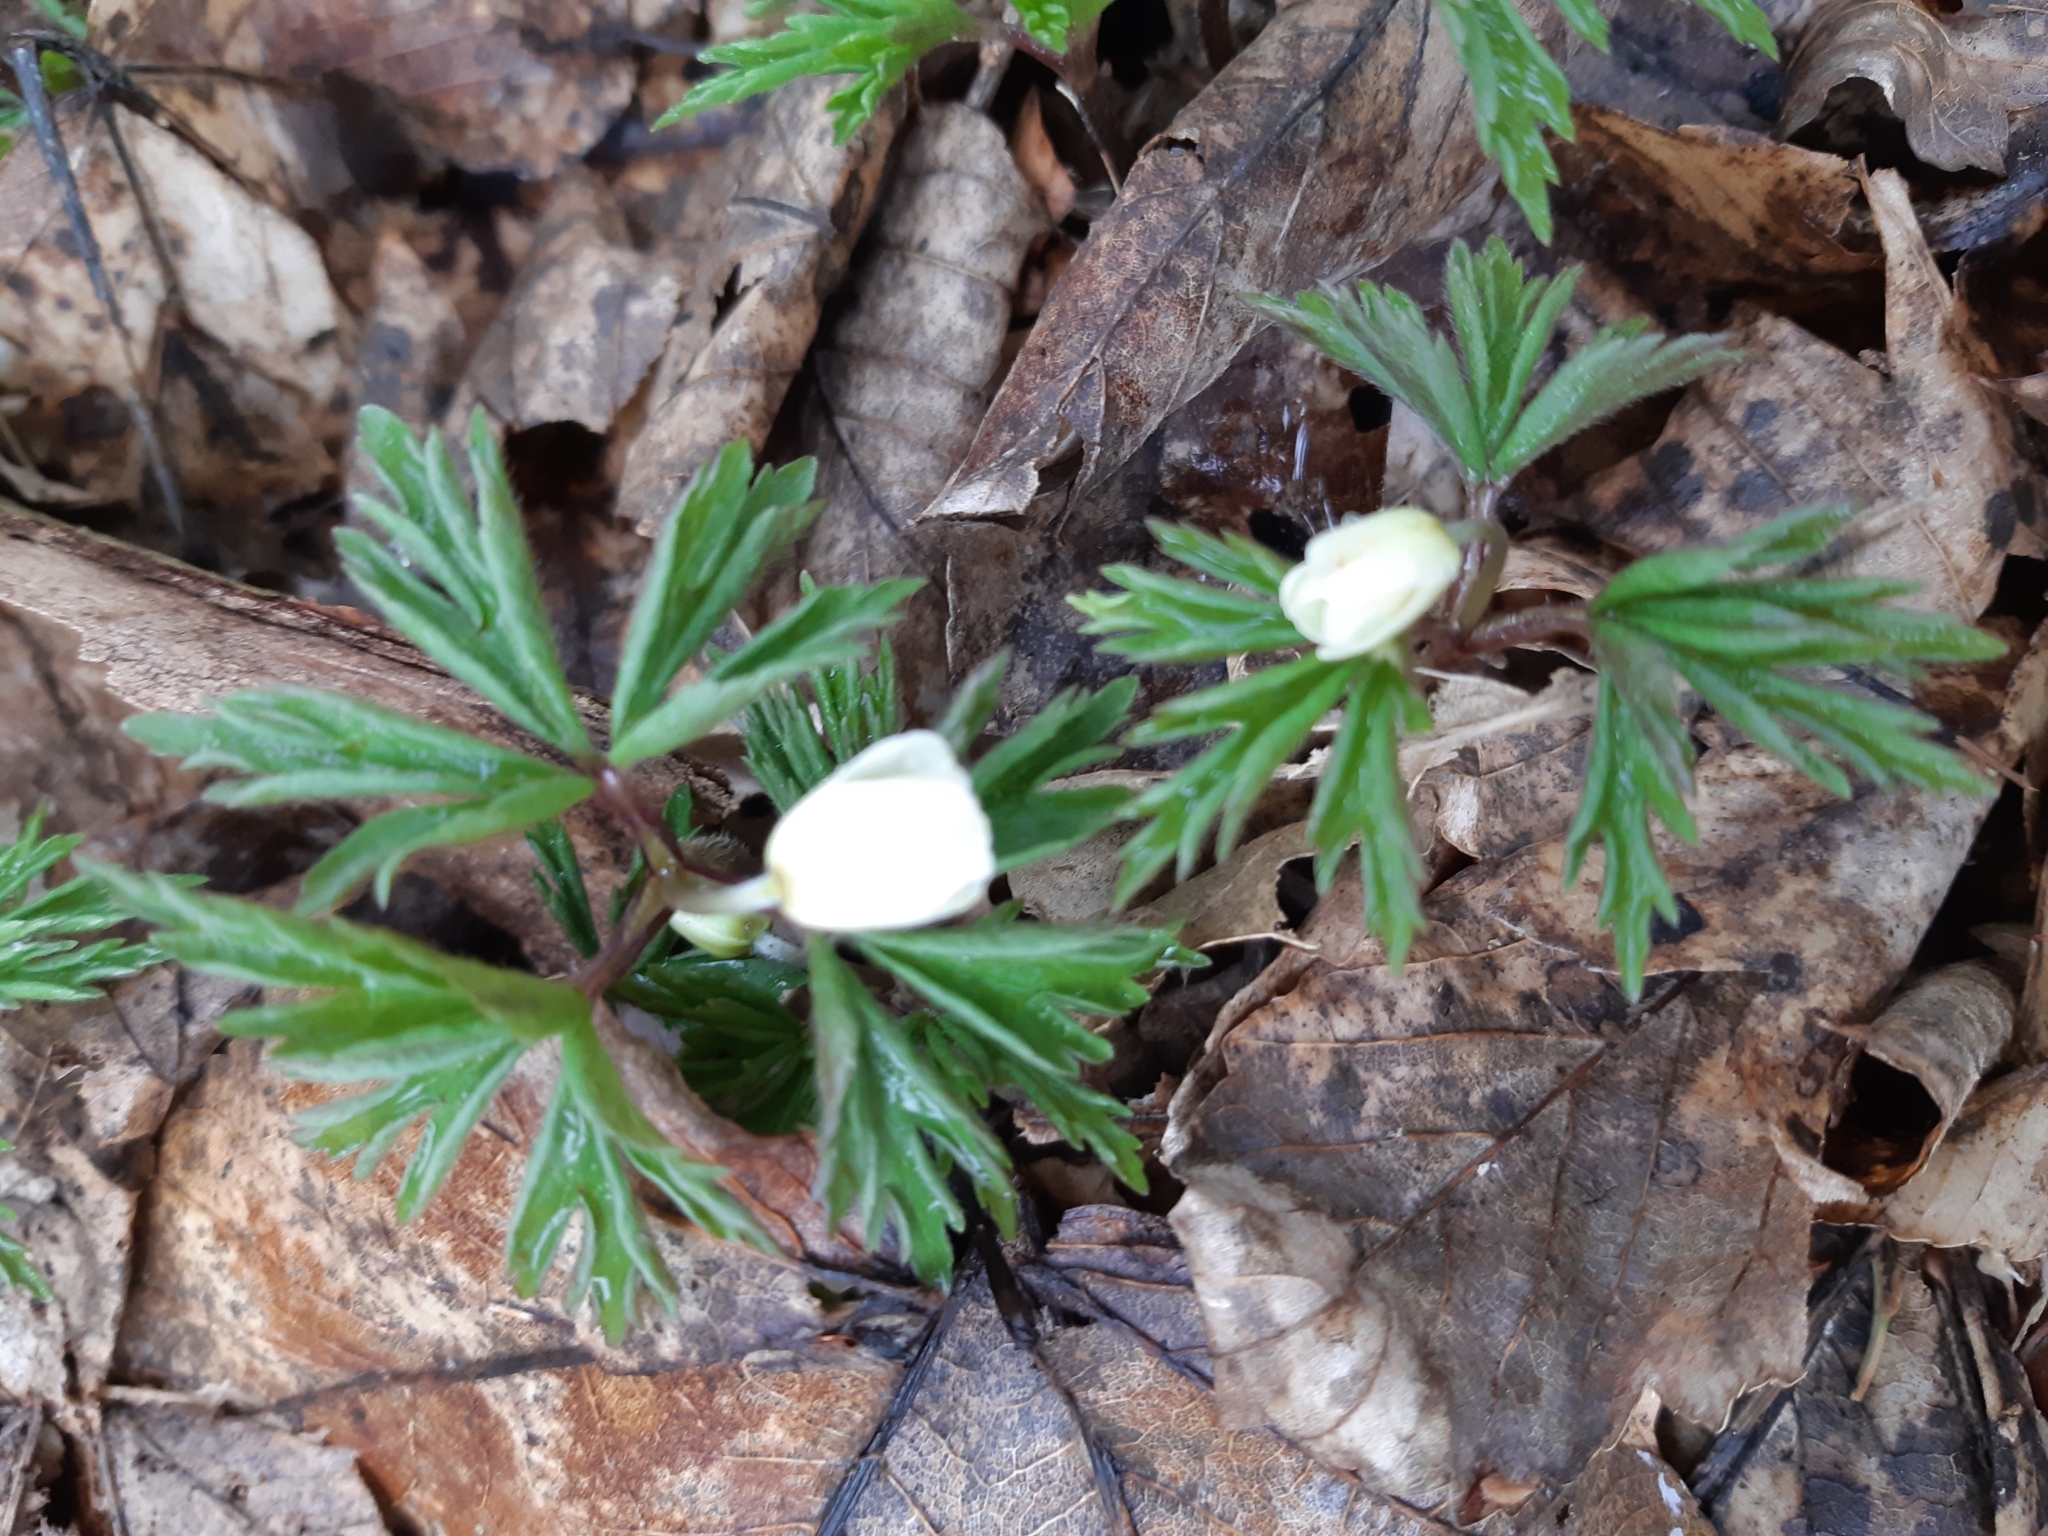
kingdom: Plantae
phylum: Tracheophyta
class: Magnoliopsida
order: Ranunculales
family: Ranunculaceae
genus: Anemone
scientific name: Anemone nemorosa
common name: Wood anemone
